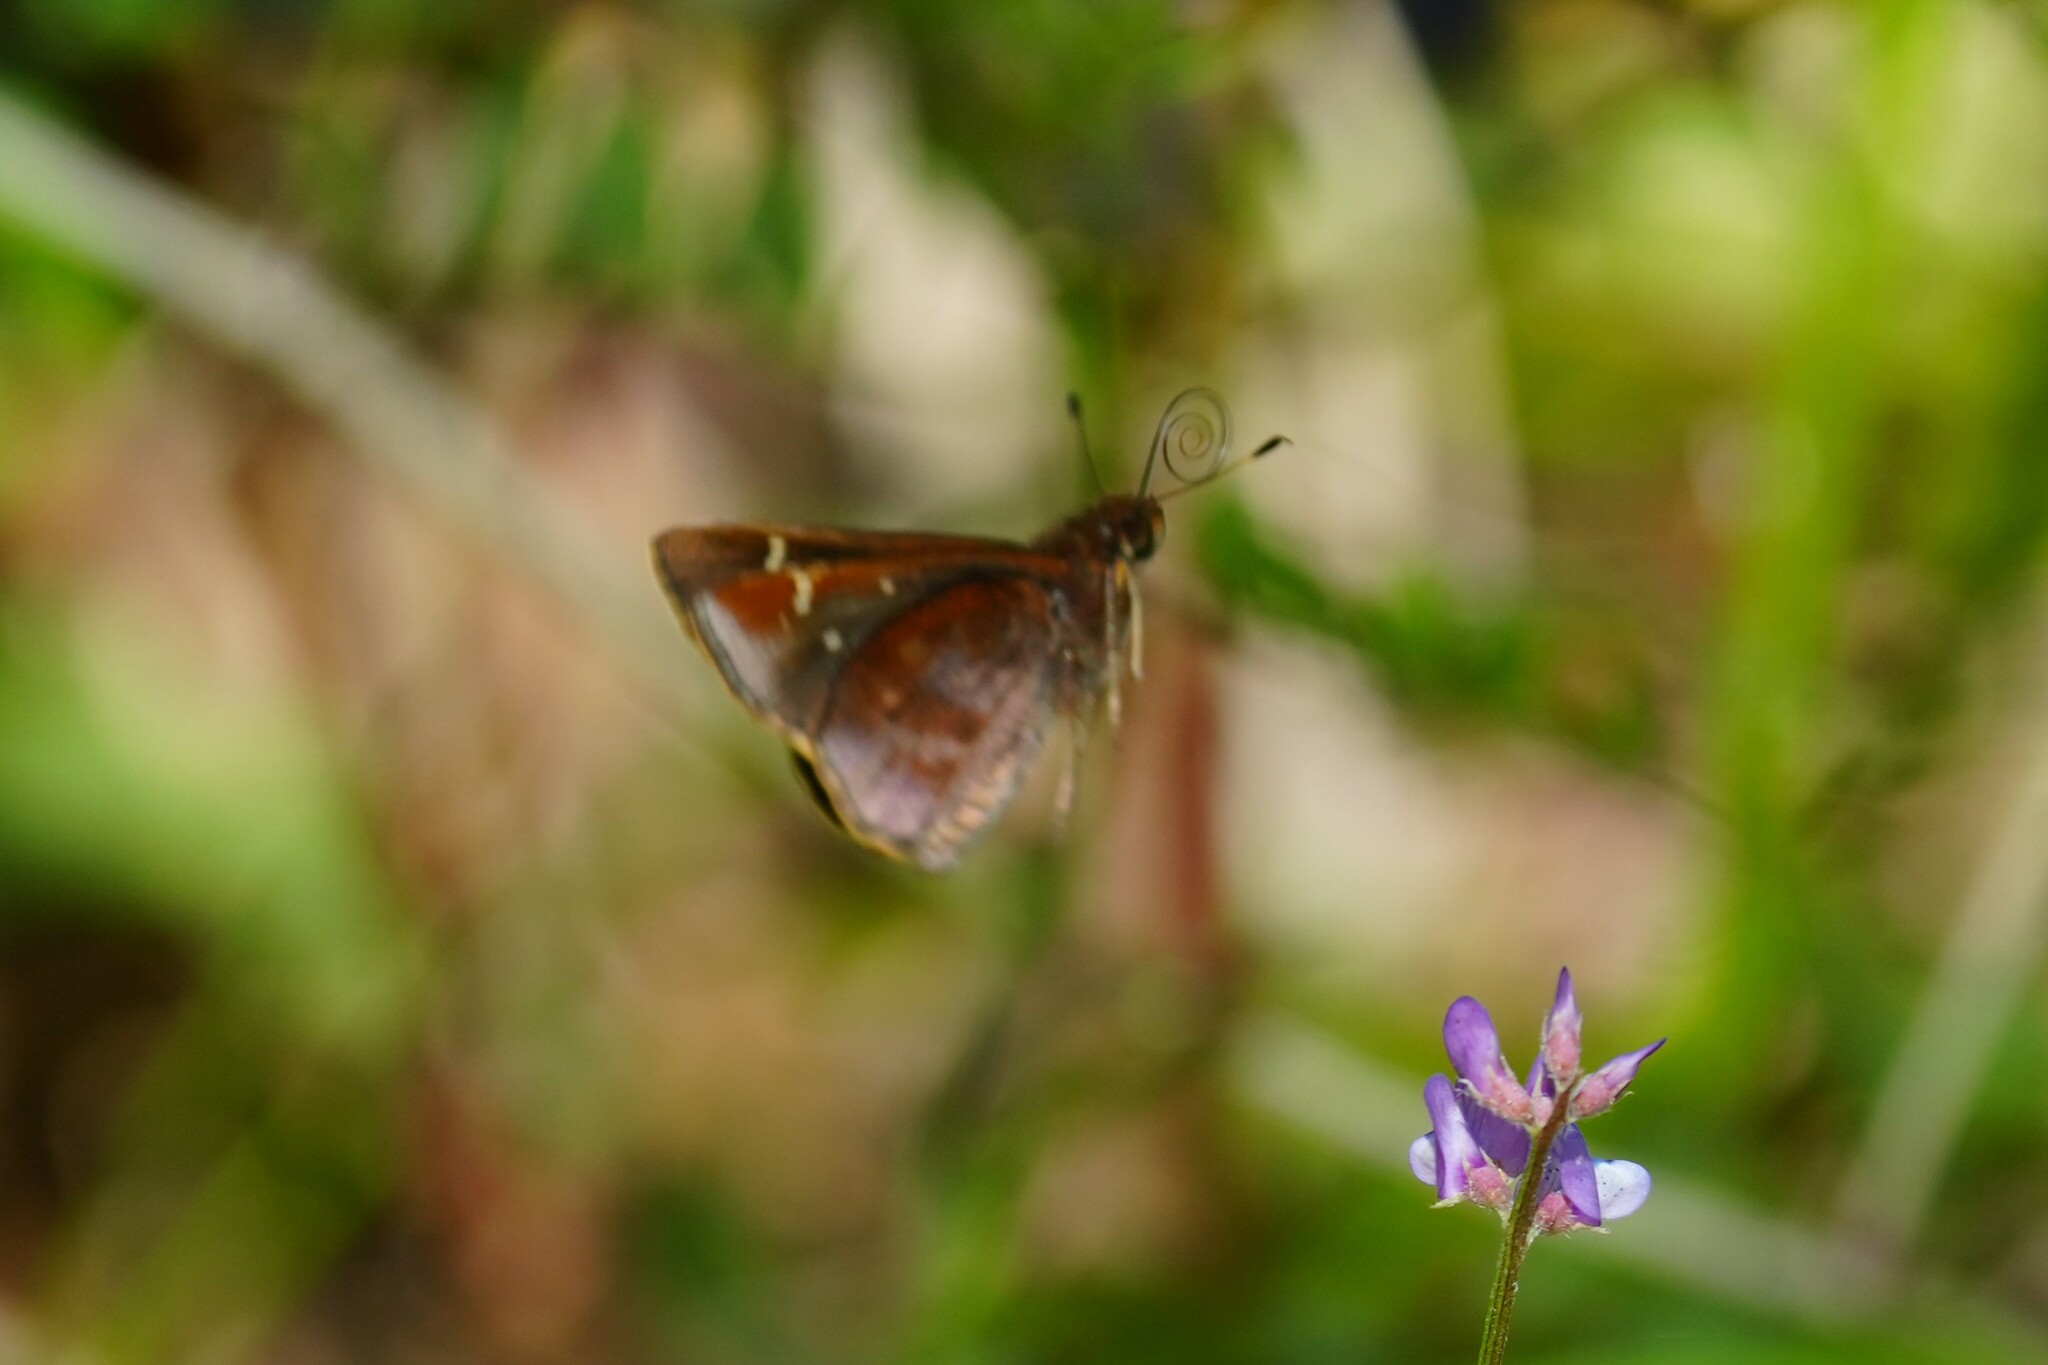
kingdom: Animalia
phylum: Arthropoda
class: Insecta
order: Lepidoptera
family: Hesperiidae
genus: Lerema
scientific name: Lerema accius
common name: Clouded skipper
